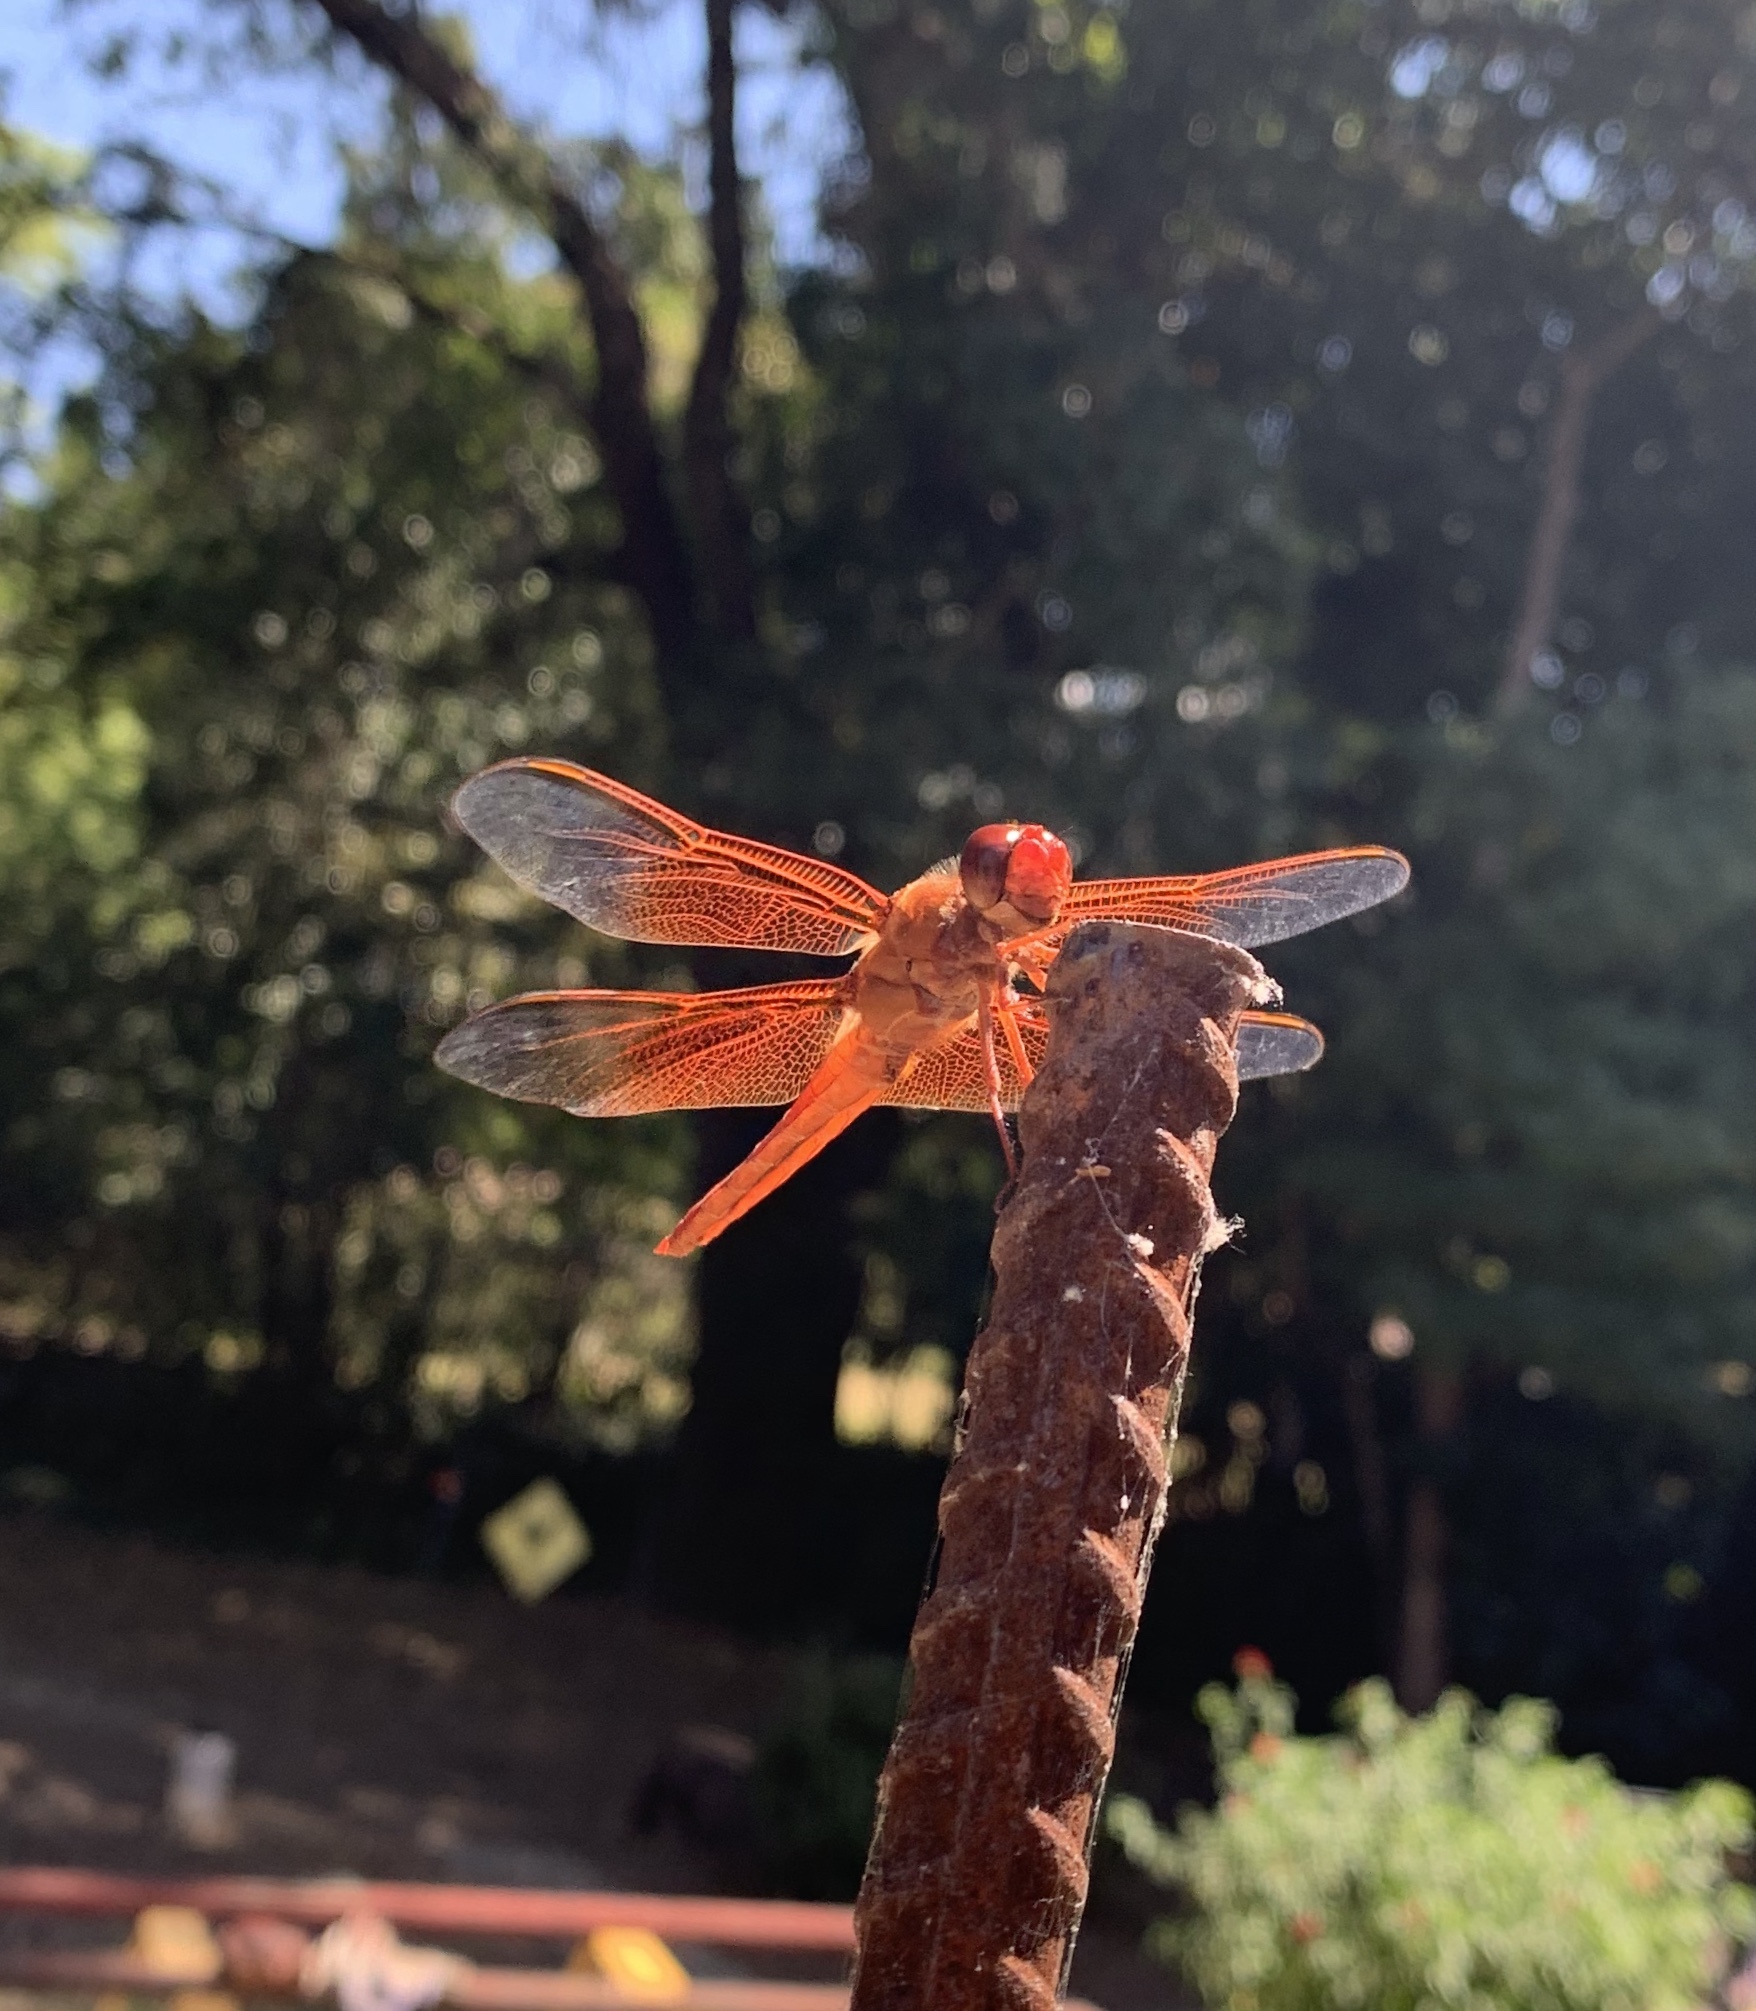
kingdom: Animalia
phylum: Arthropoda
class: Insecta
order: Odonata
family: Libellulidae
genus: Libellula
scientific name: Libellula saturata
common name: Flame skimmer
